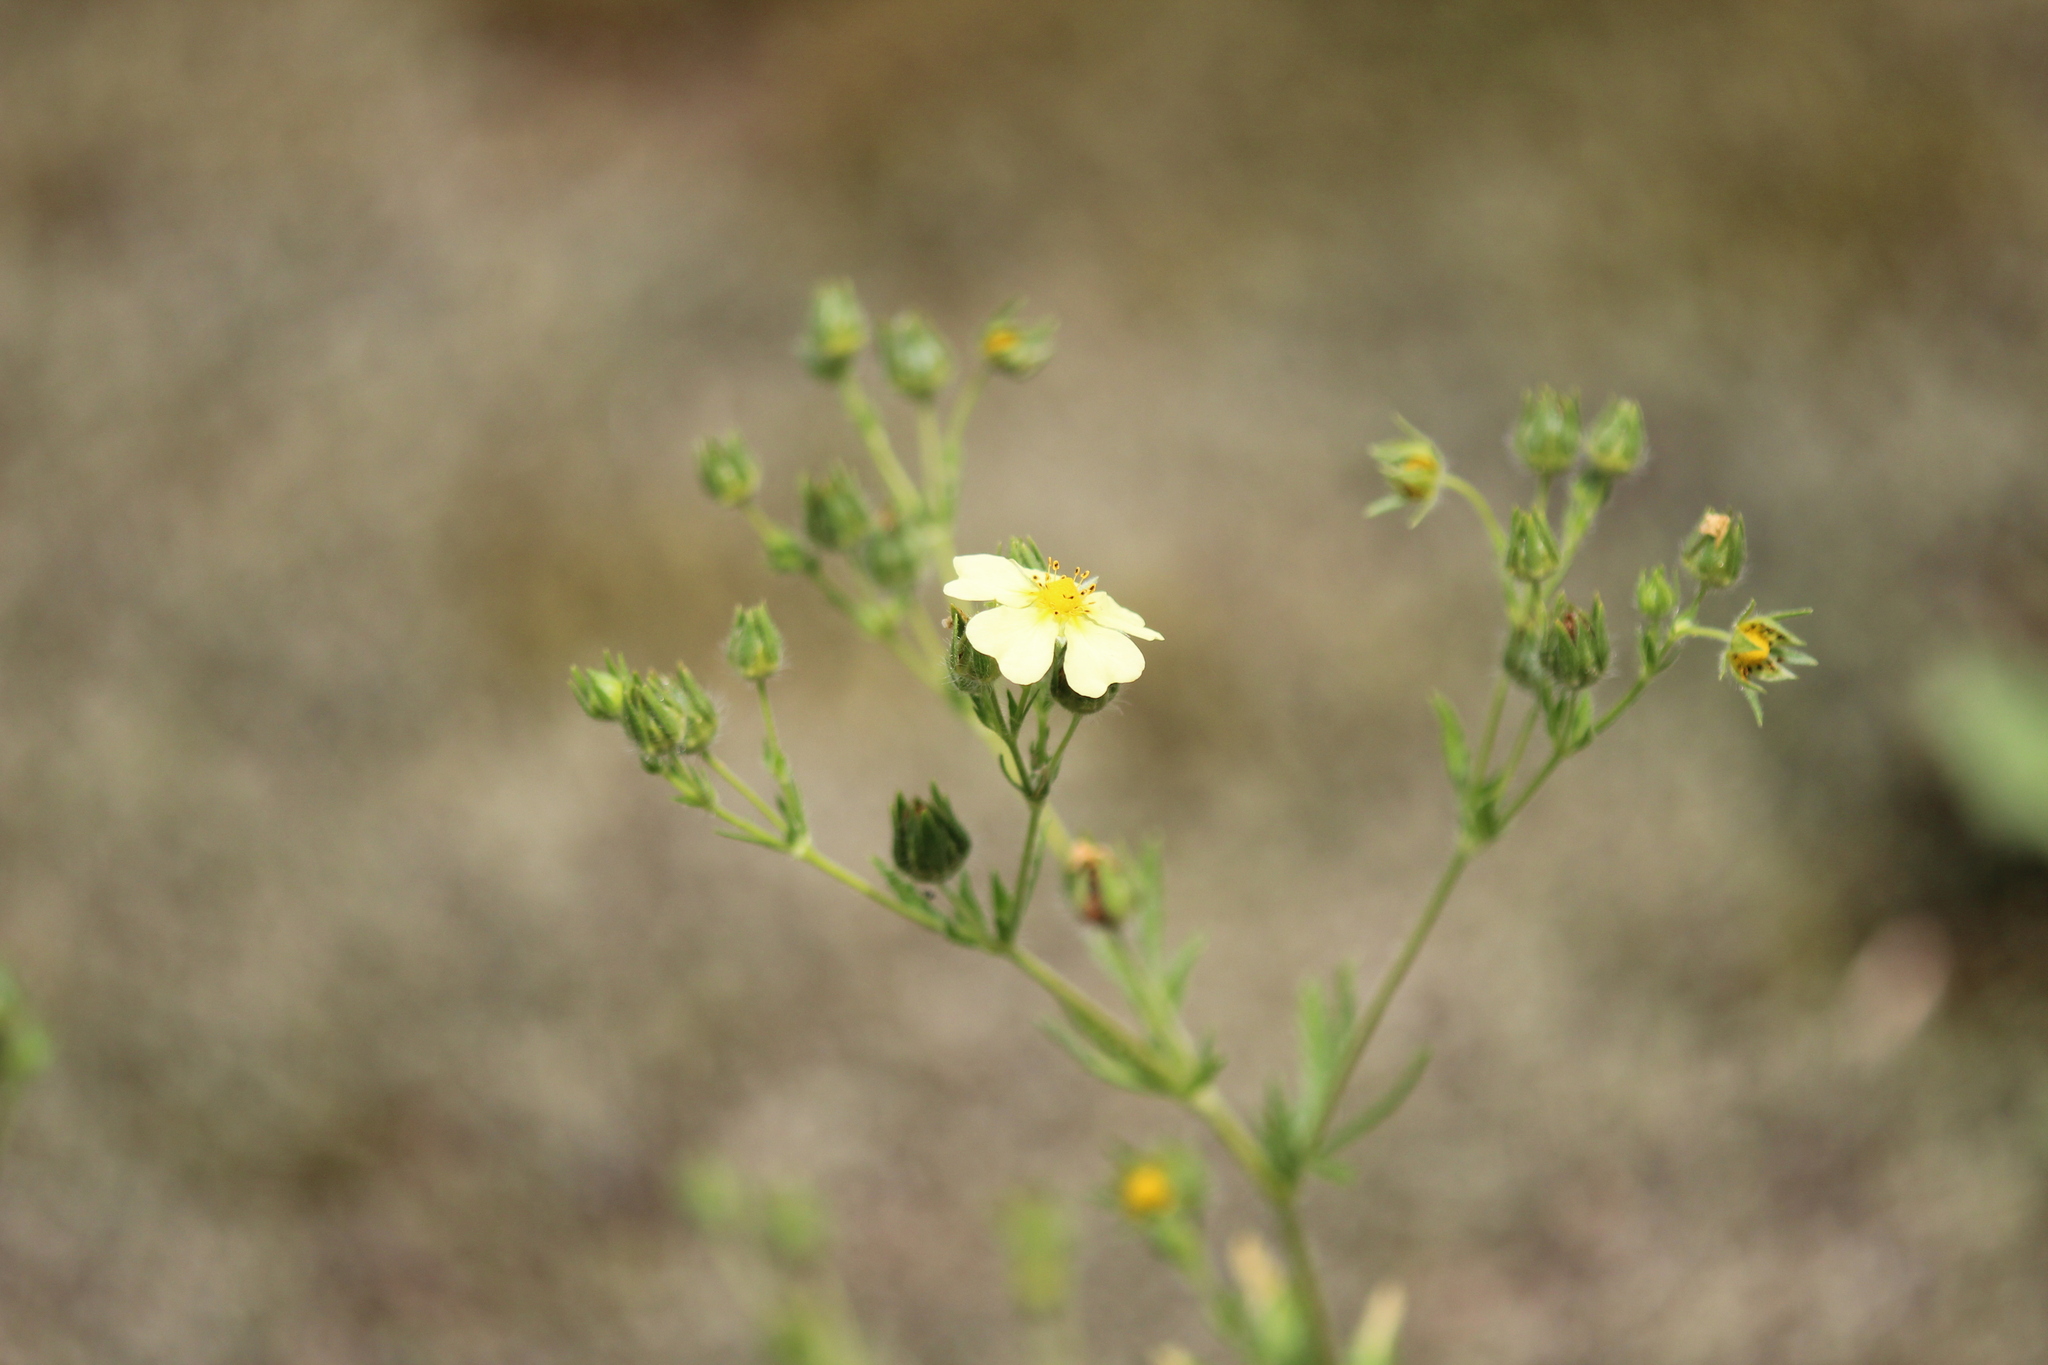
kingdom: Plantae
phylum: Tracheophyta
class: Magnoliopsida
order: Rosales
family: Rosaceae
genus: Potentilla
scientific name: Potentilla recta
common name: Sulphur cinquefoil
